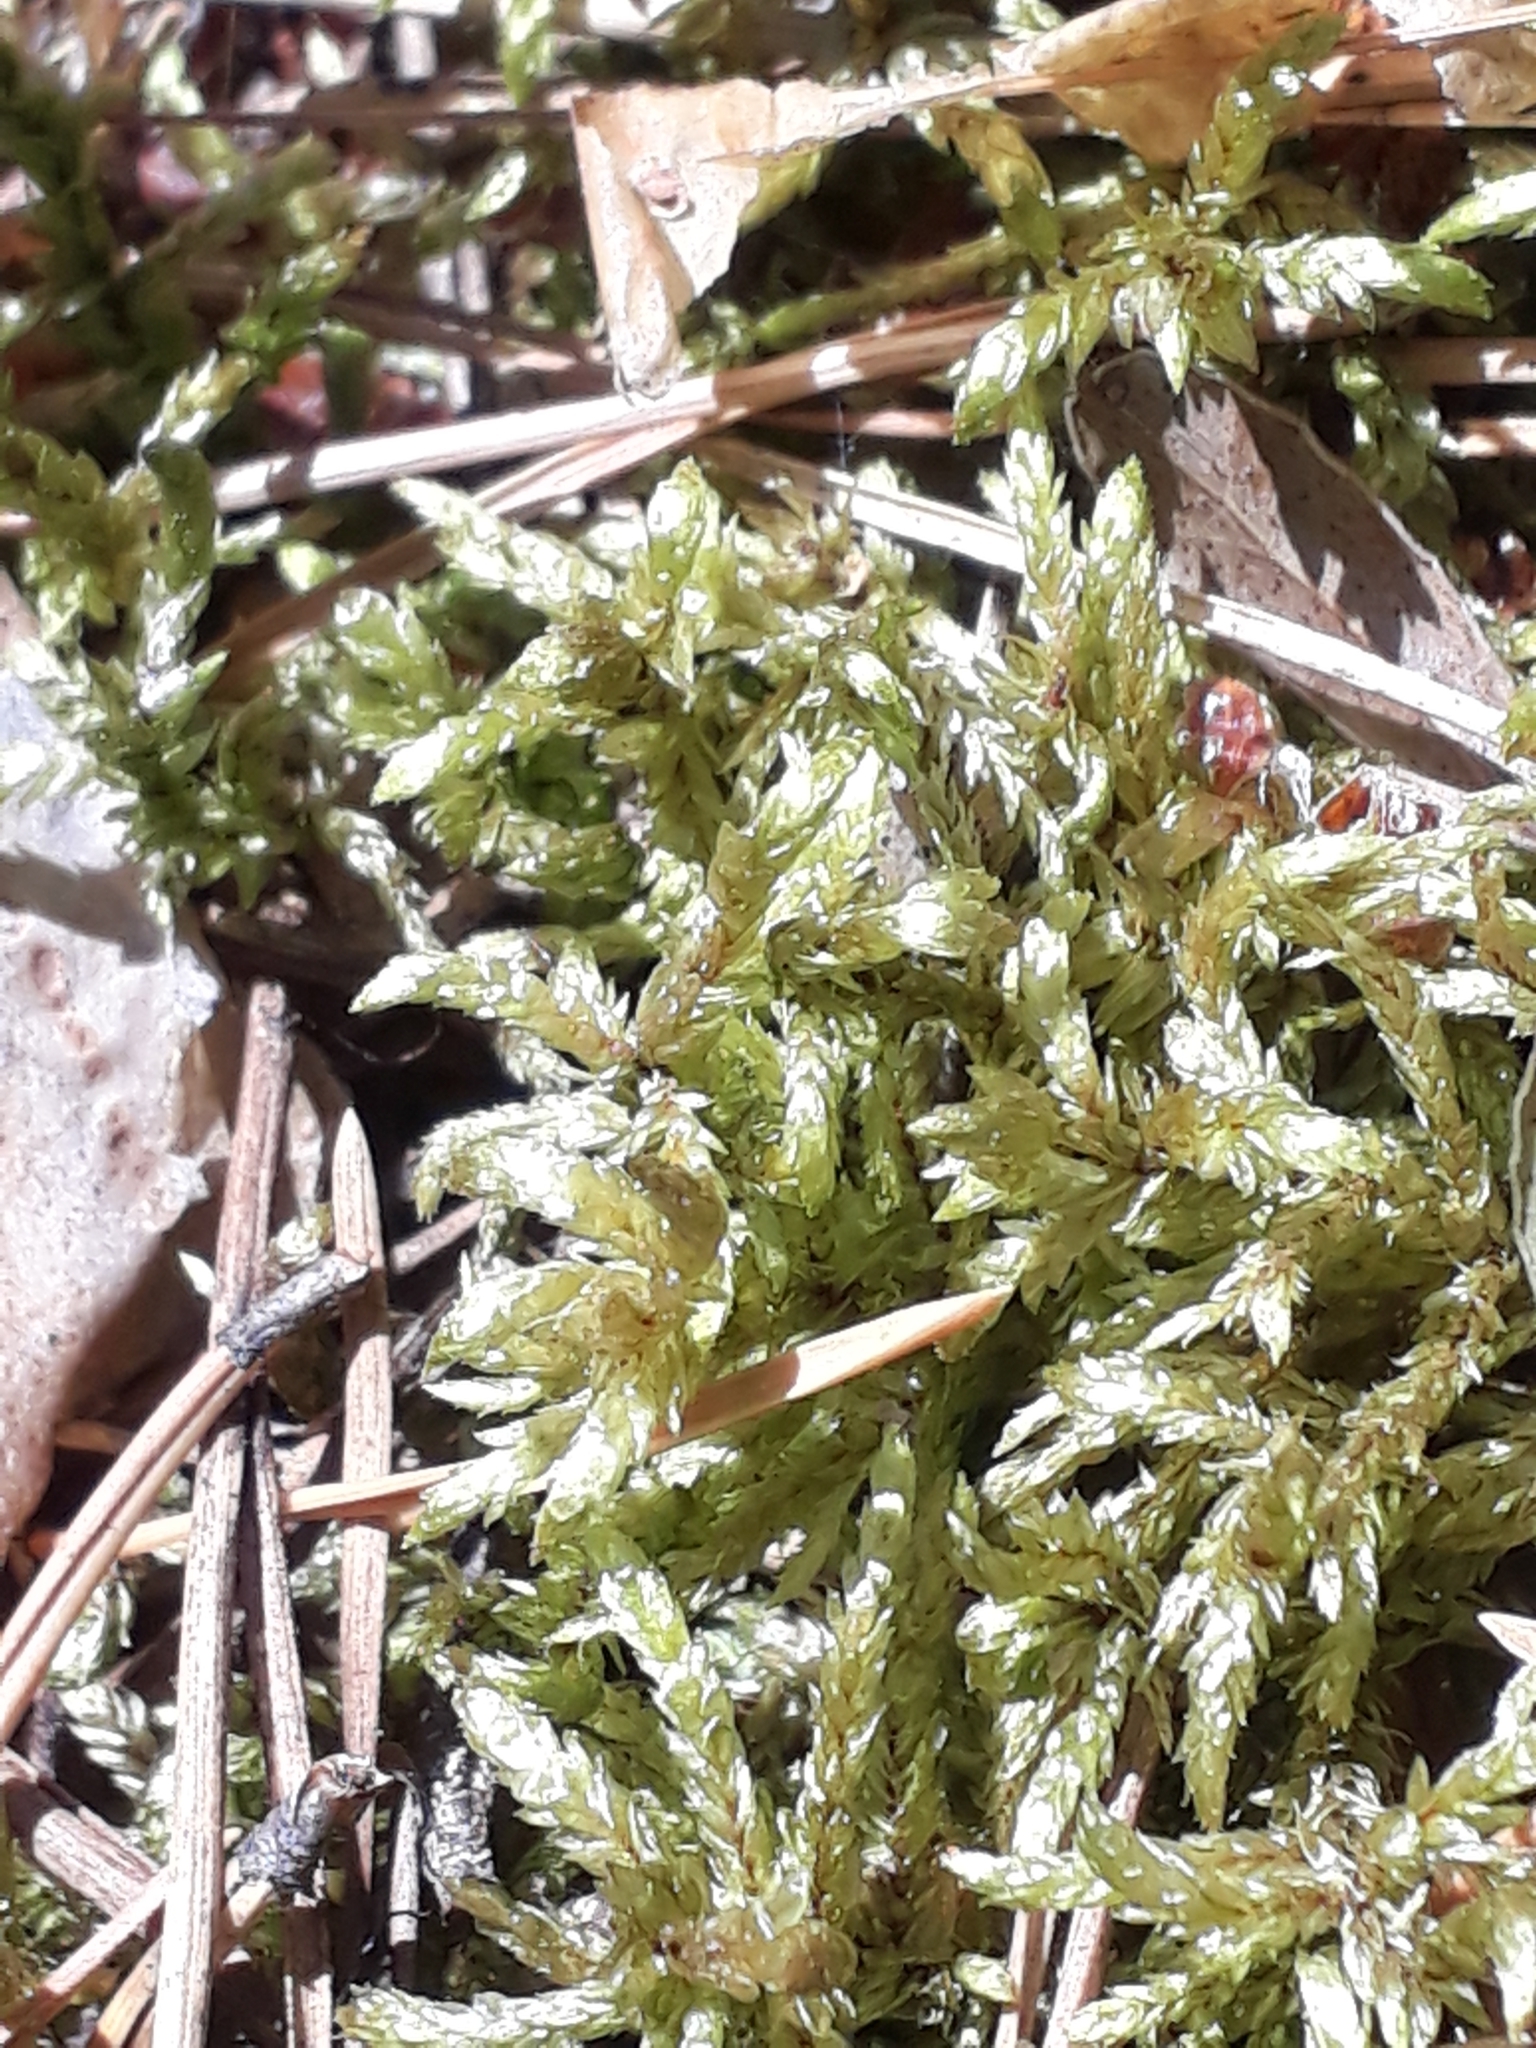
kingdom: Plantae
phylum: Bryophyta
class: Bryopsida
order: Hypnales
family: Hylocomiaceae
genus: Pleurozium
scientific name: Pleurozium schreberi
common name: Red-stemmed feather moss
